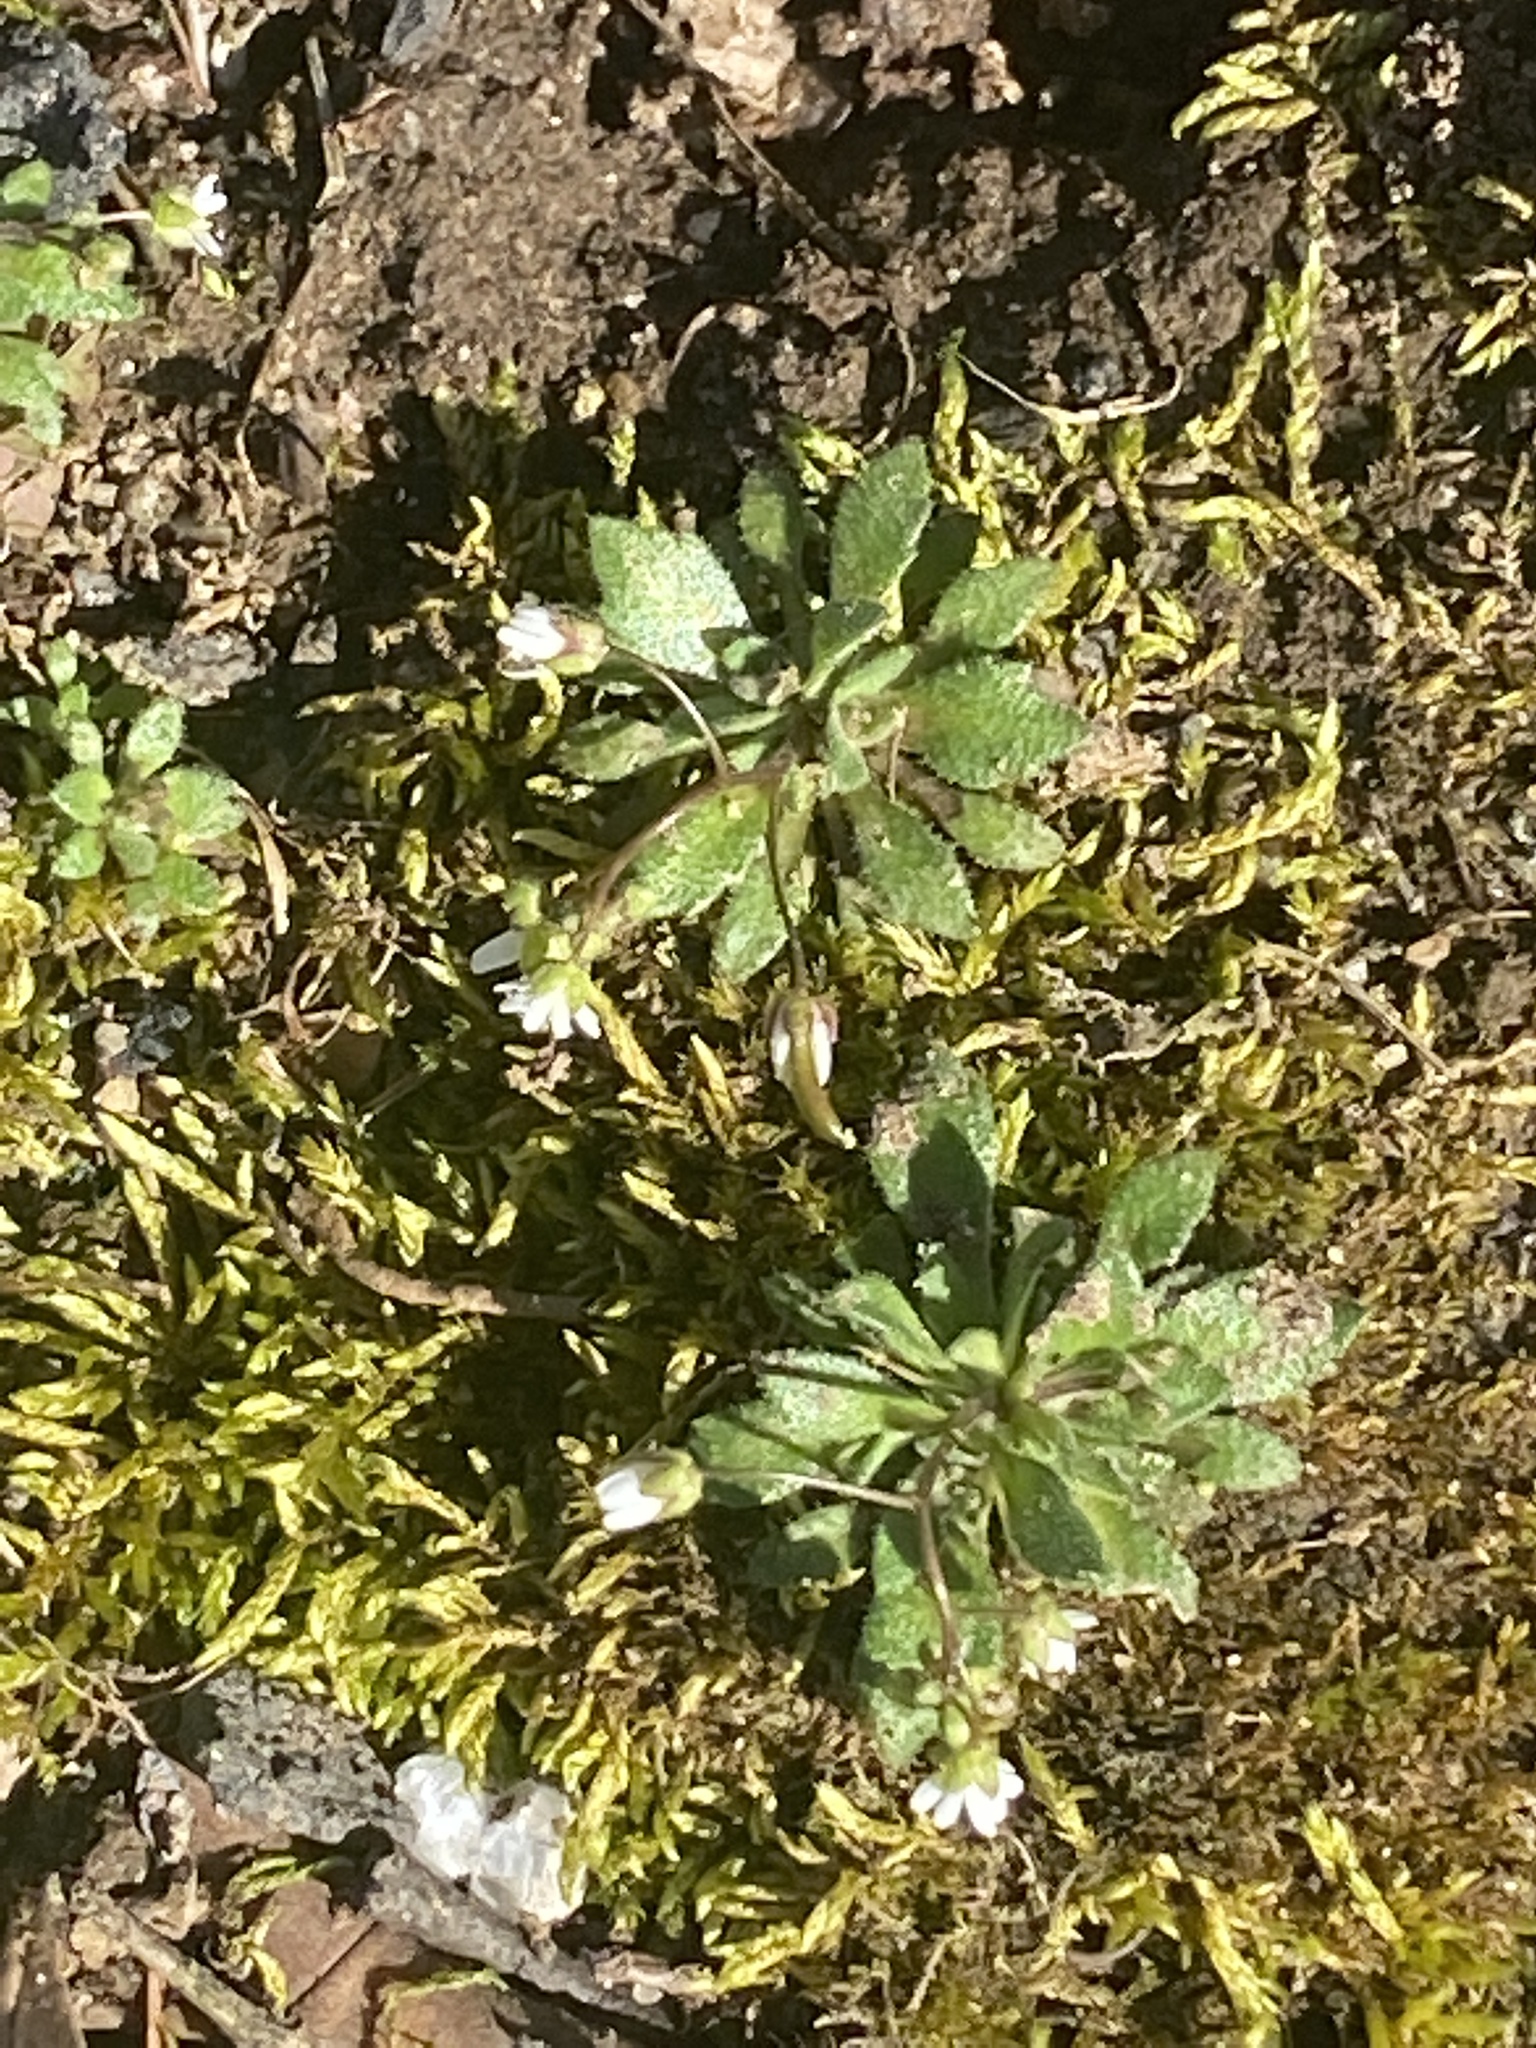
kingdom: Plantae
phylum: Tracheophyta
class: Magnoliopsida
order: Brassicales
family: Brassicaceae
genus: Draba
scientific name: Draba verna
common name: Spring draba
